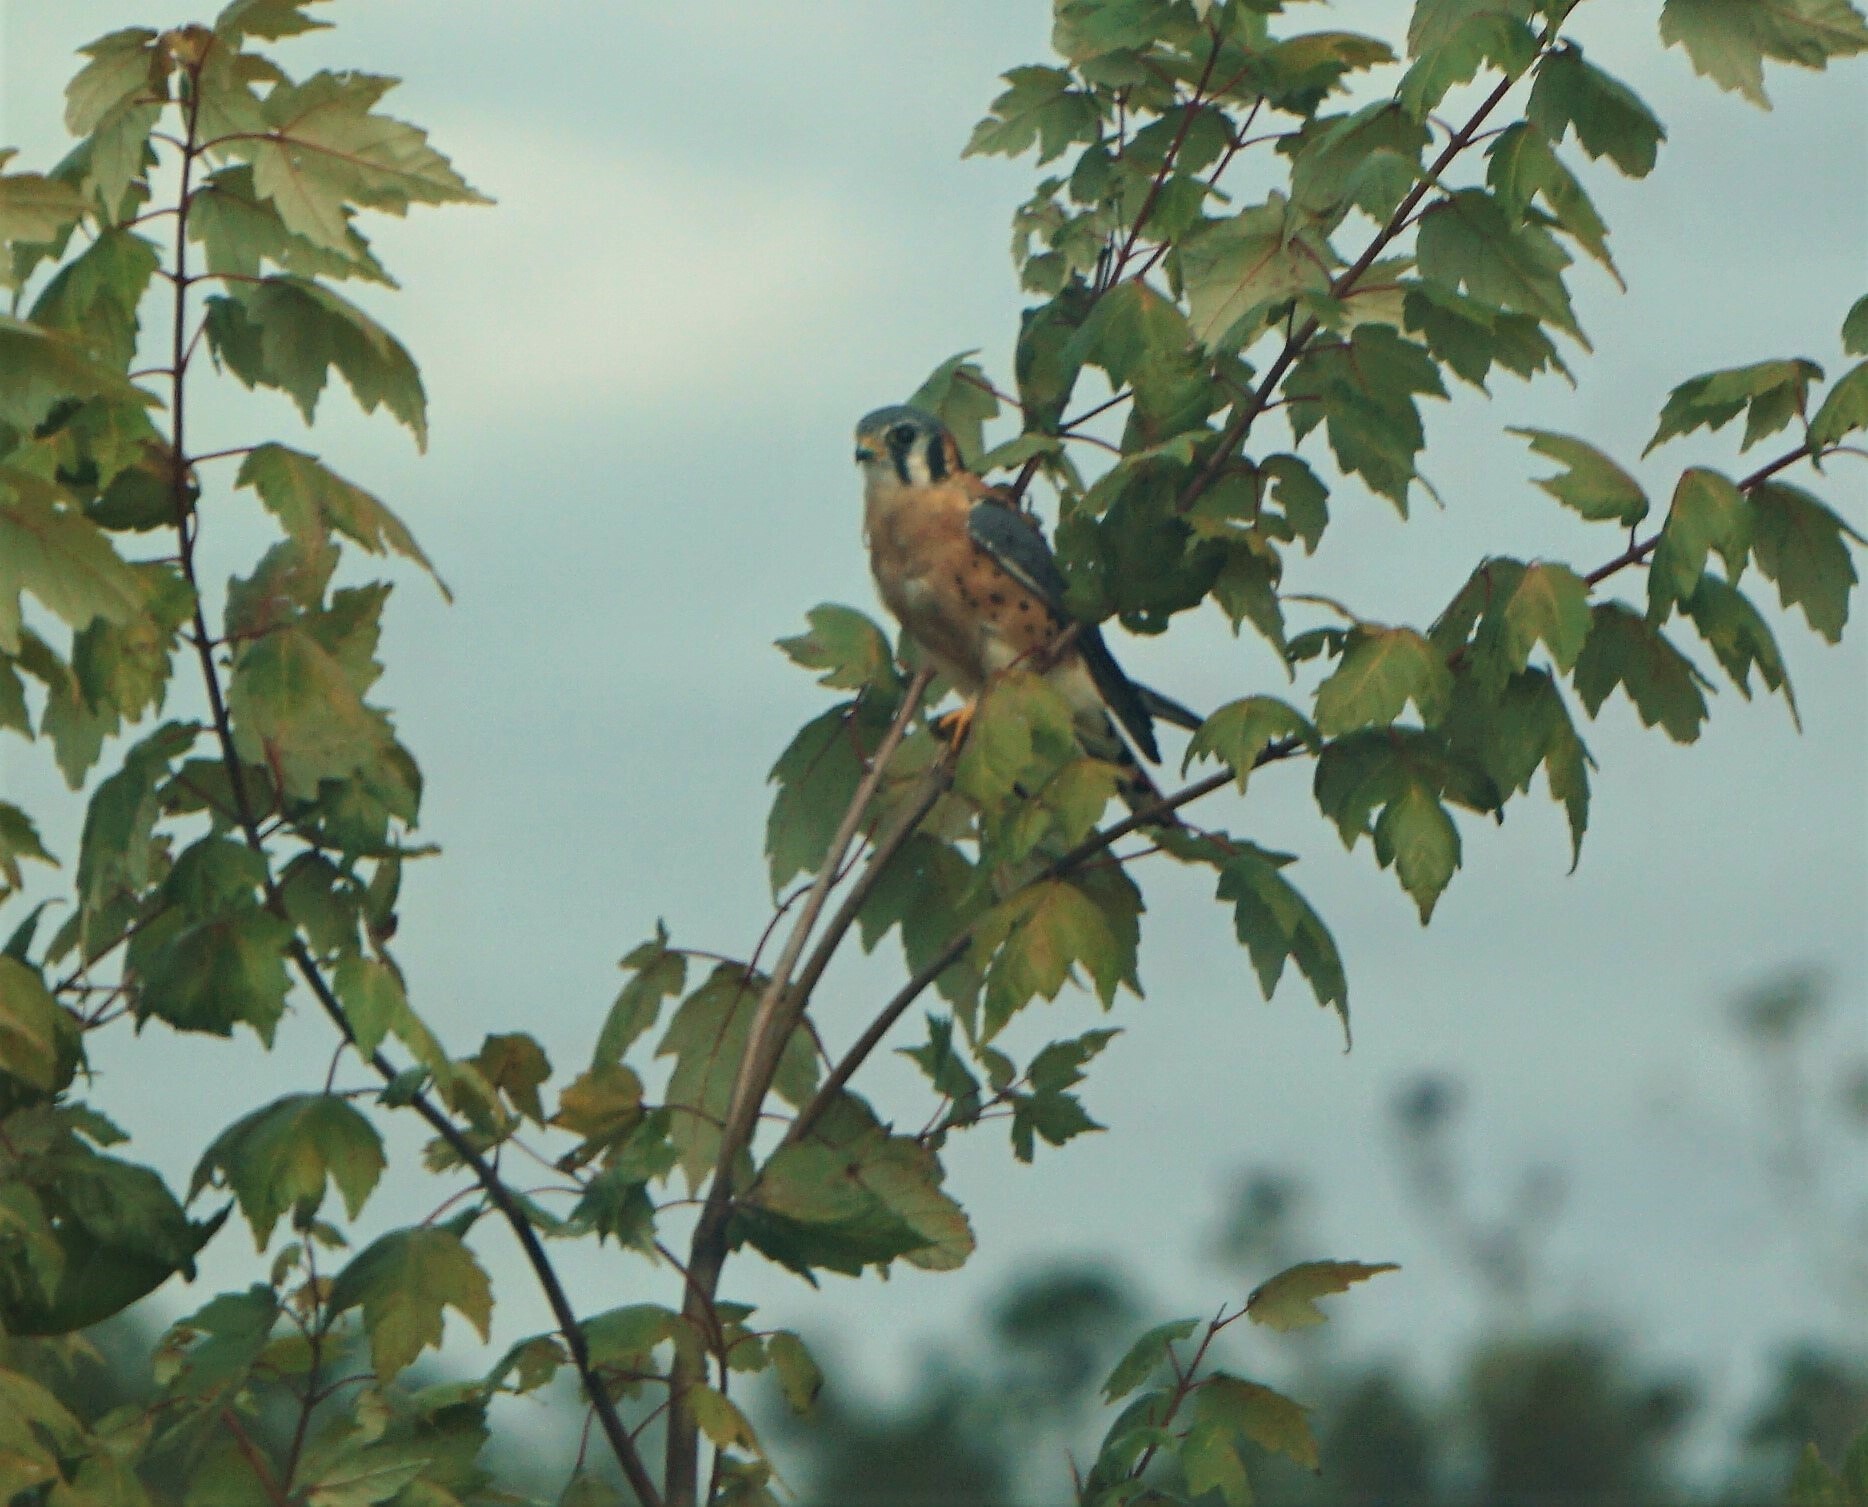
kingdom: Animalia
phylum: Chordata
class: Aves
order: Falconiformes
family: Falconidae
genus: Falco
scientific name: Falco sparverius
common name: American kestrel
